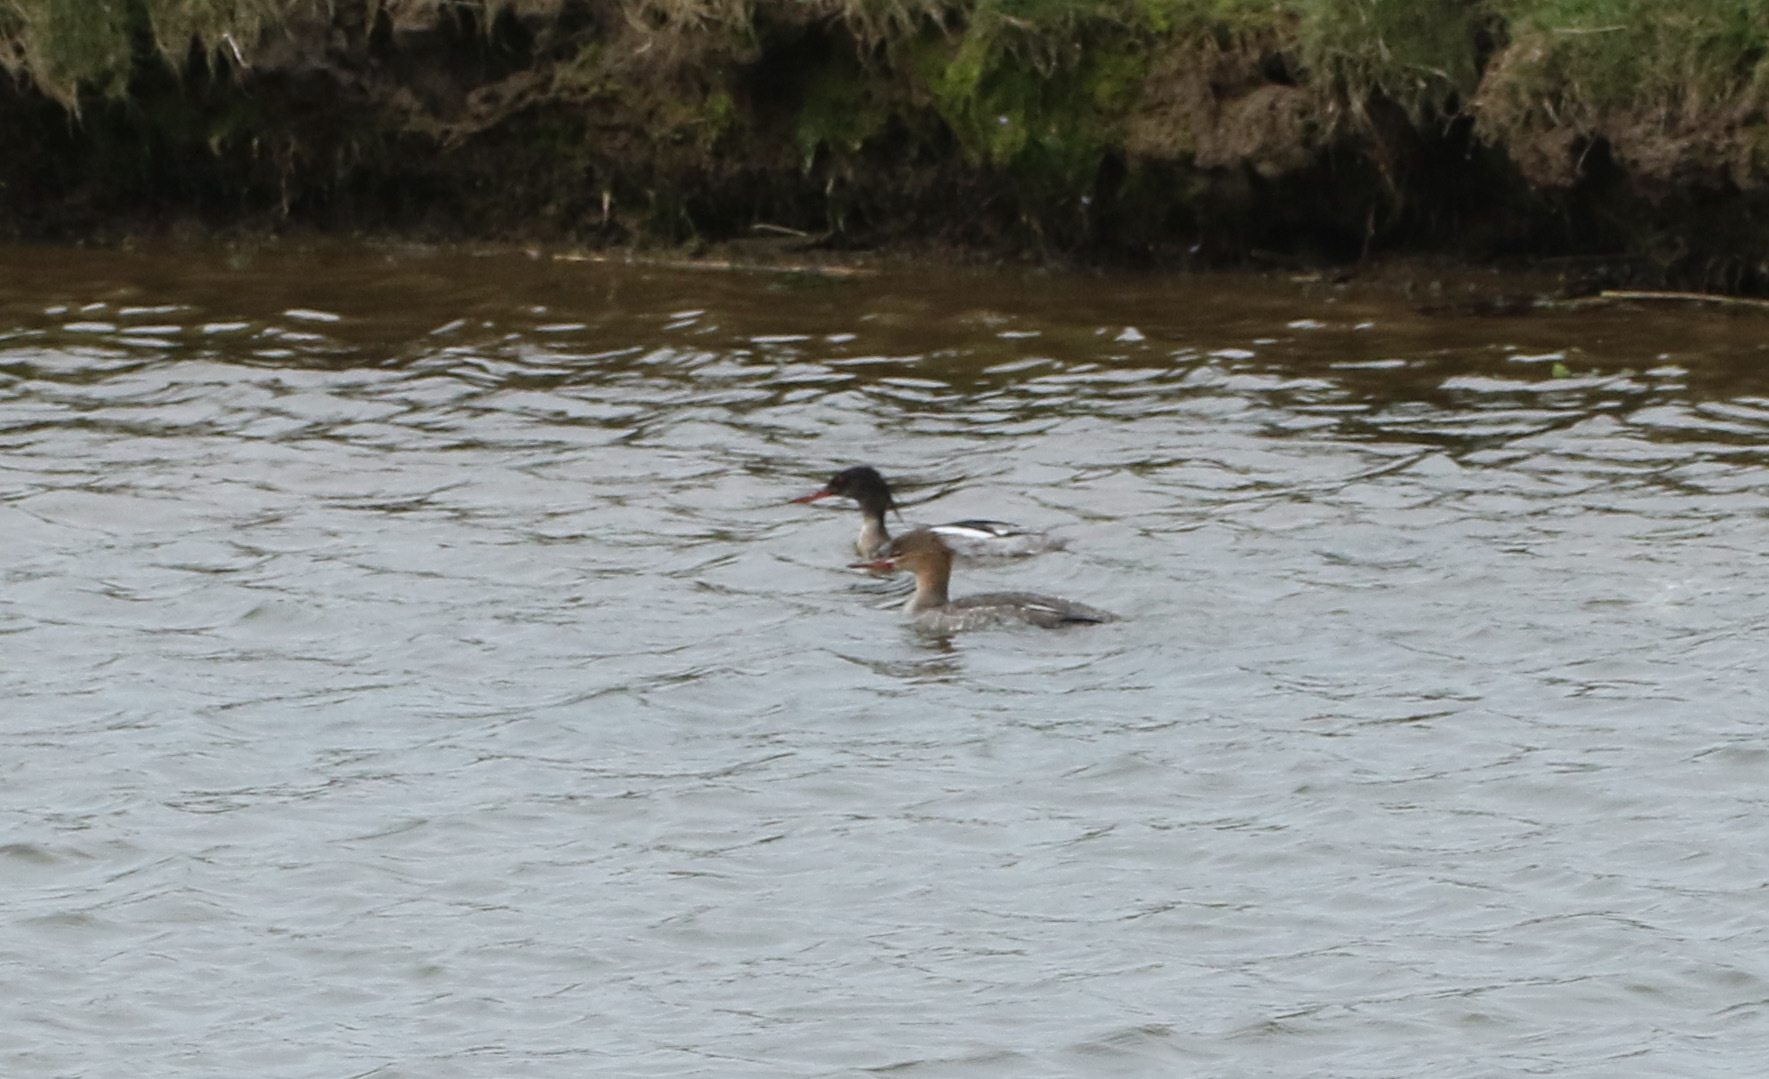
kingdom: Animalia
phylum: Chordata
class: Aves
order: Anseriformes
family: Anatidae
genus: Mergus
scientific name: Mergus serrator
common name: Red-breasted merganser
